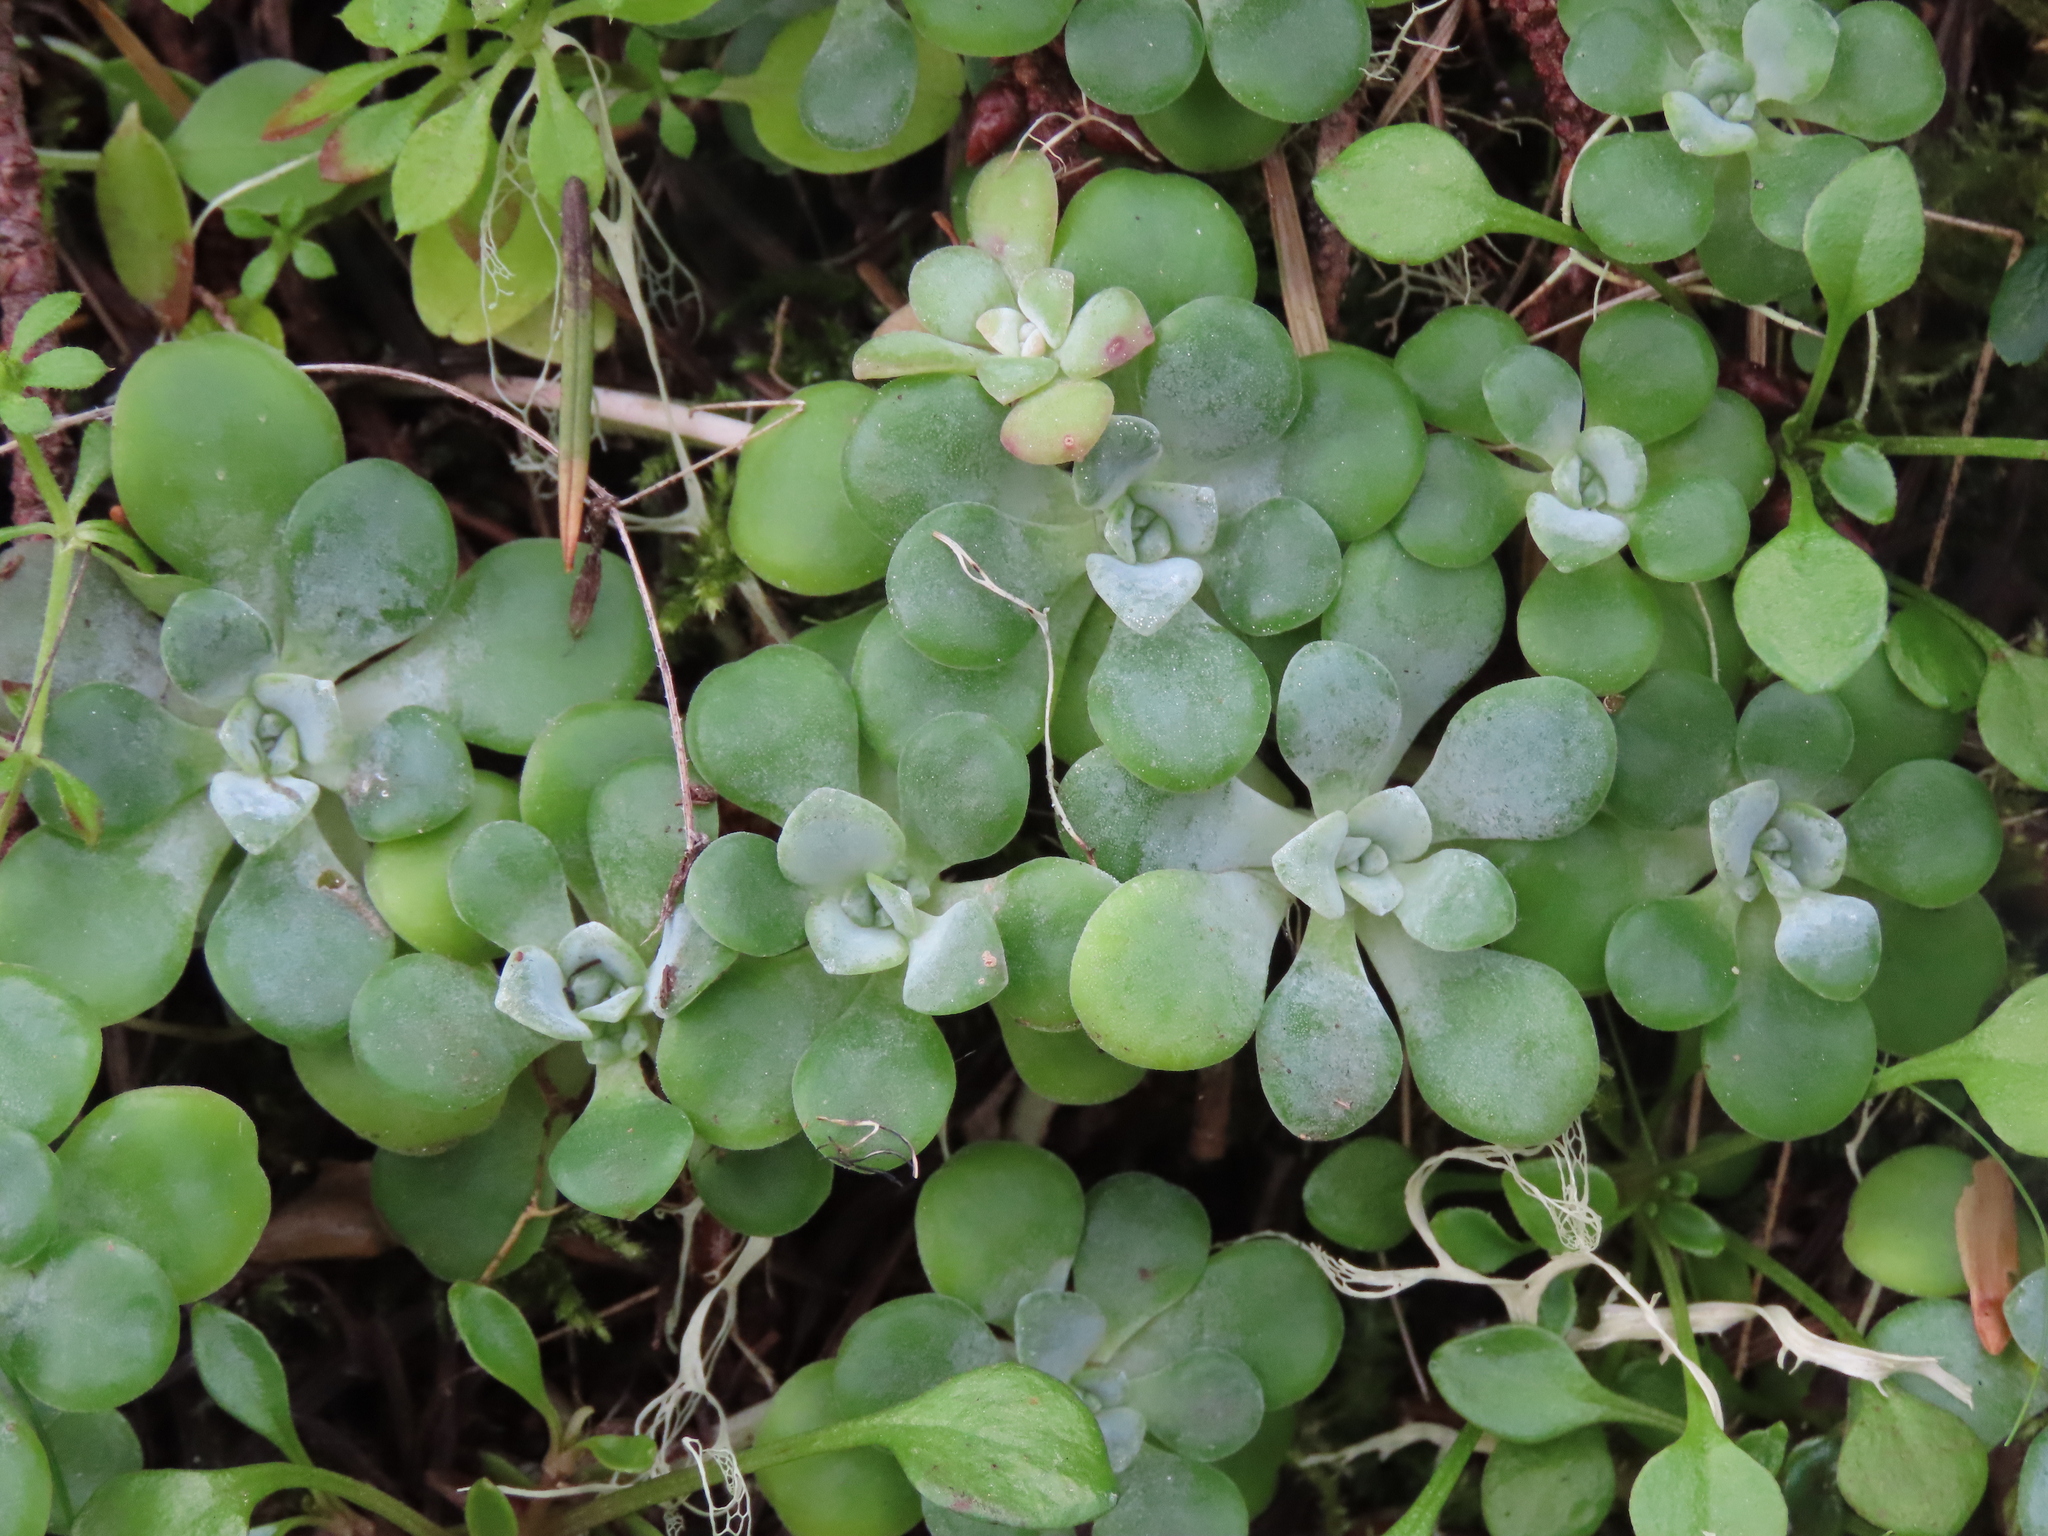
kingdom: Plantae
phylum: Tracheophyta
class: Magnoliopsida
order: Saxifragales
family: Crassulaceae
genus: Sedum
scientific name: Sedum spathulifolium
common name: Colorado stonecrop
